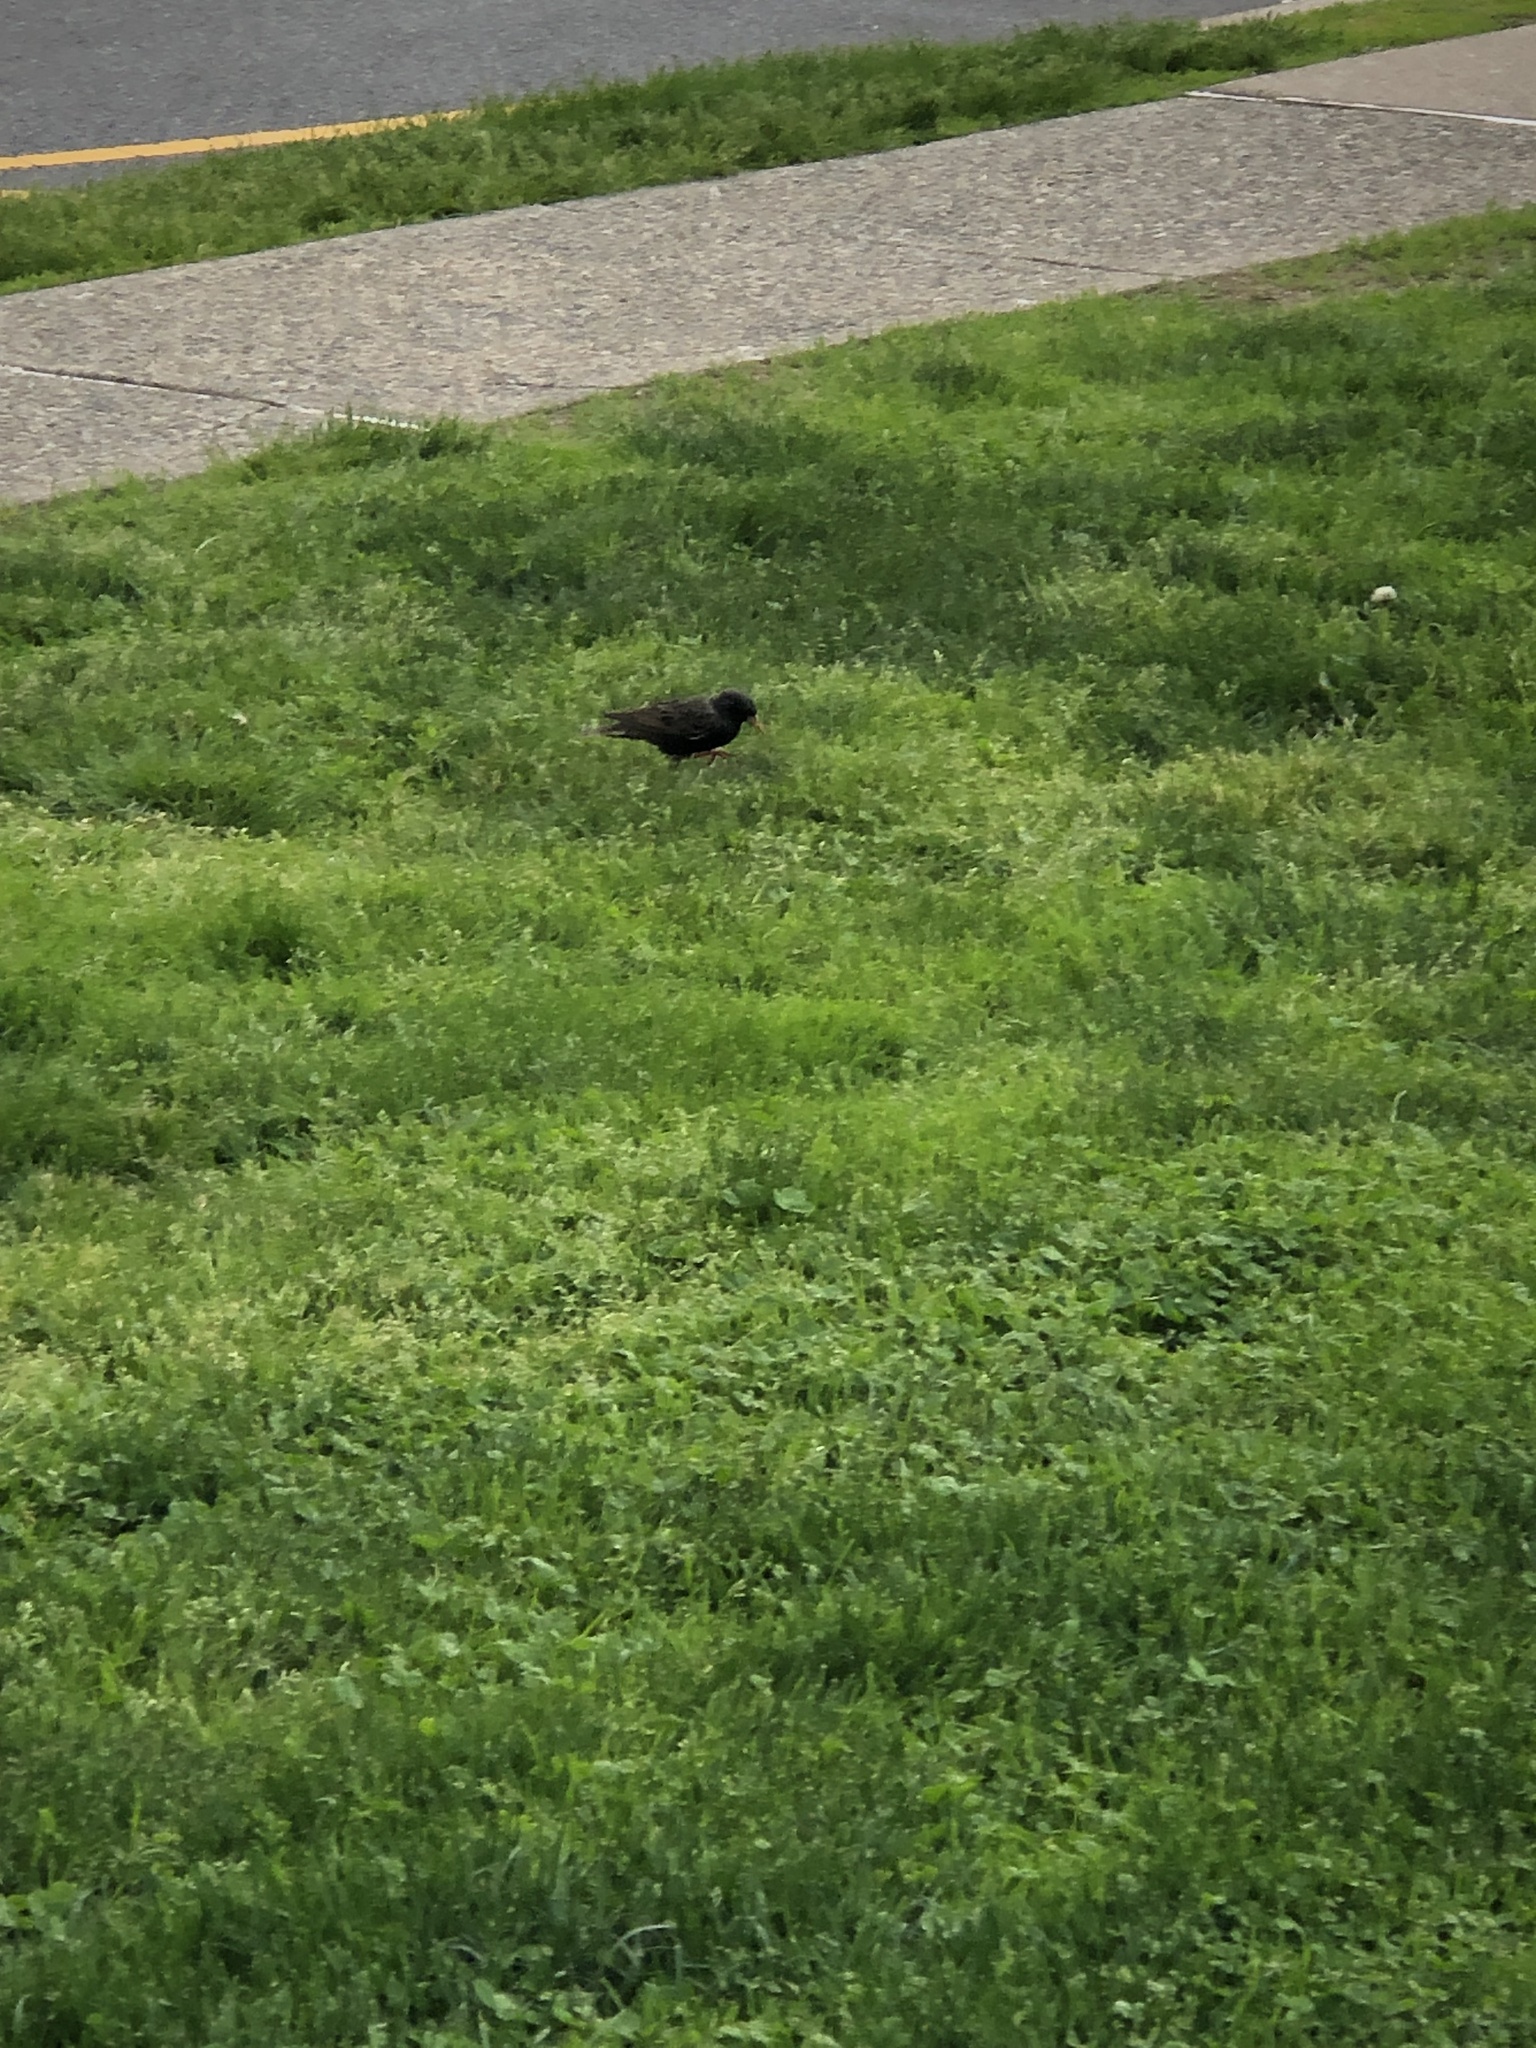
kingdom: Animalia
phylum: Chordata
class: Aves
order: Passeriformes
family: Sturnidae
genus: Sturnus
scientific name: Sturnus vulgaris
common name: Common starling
